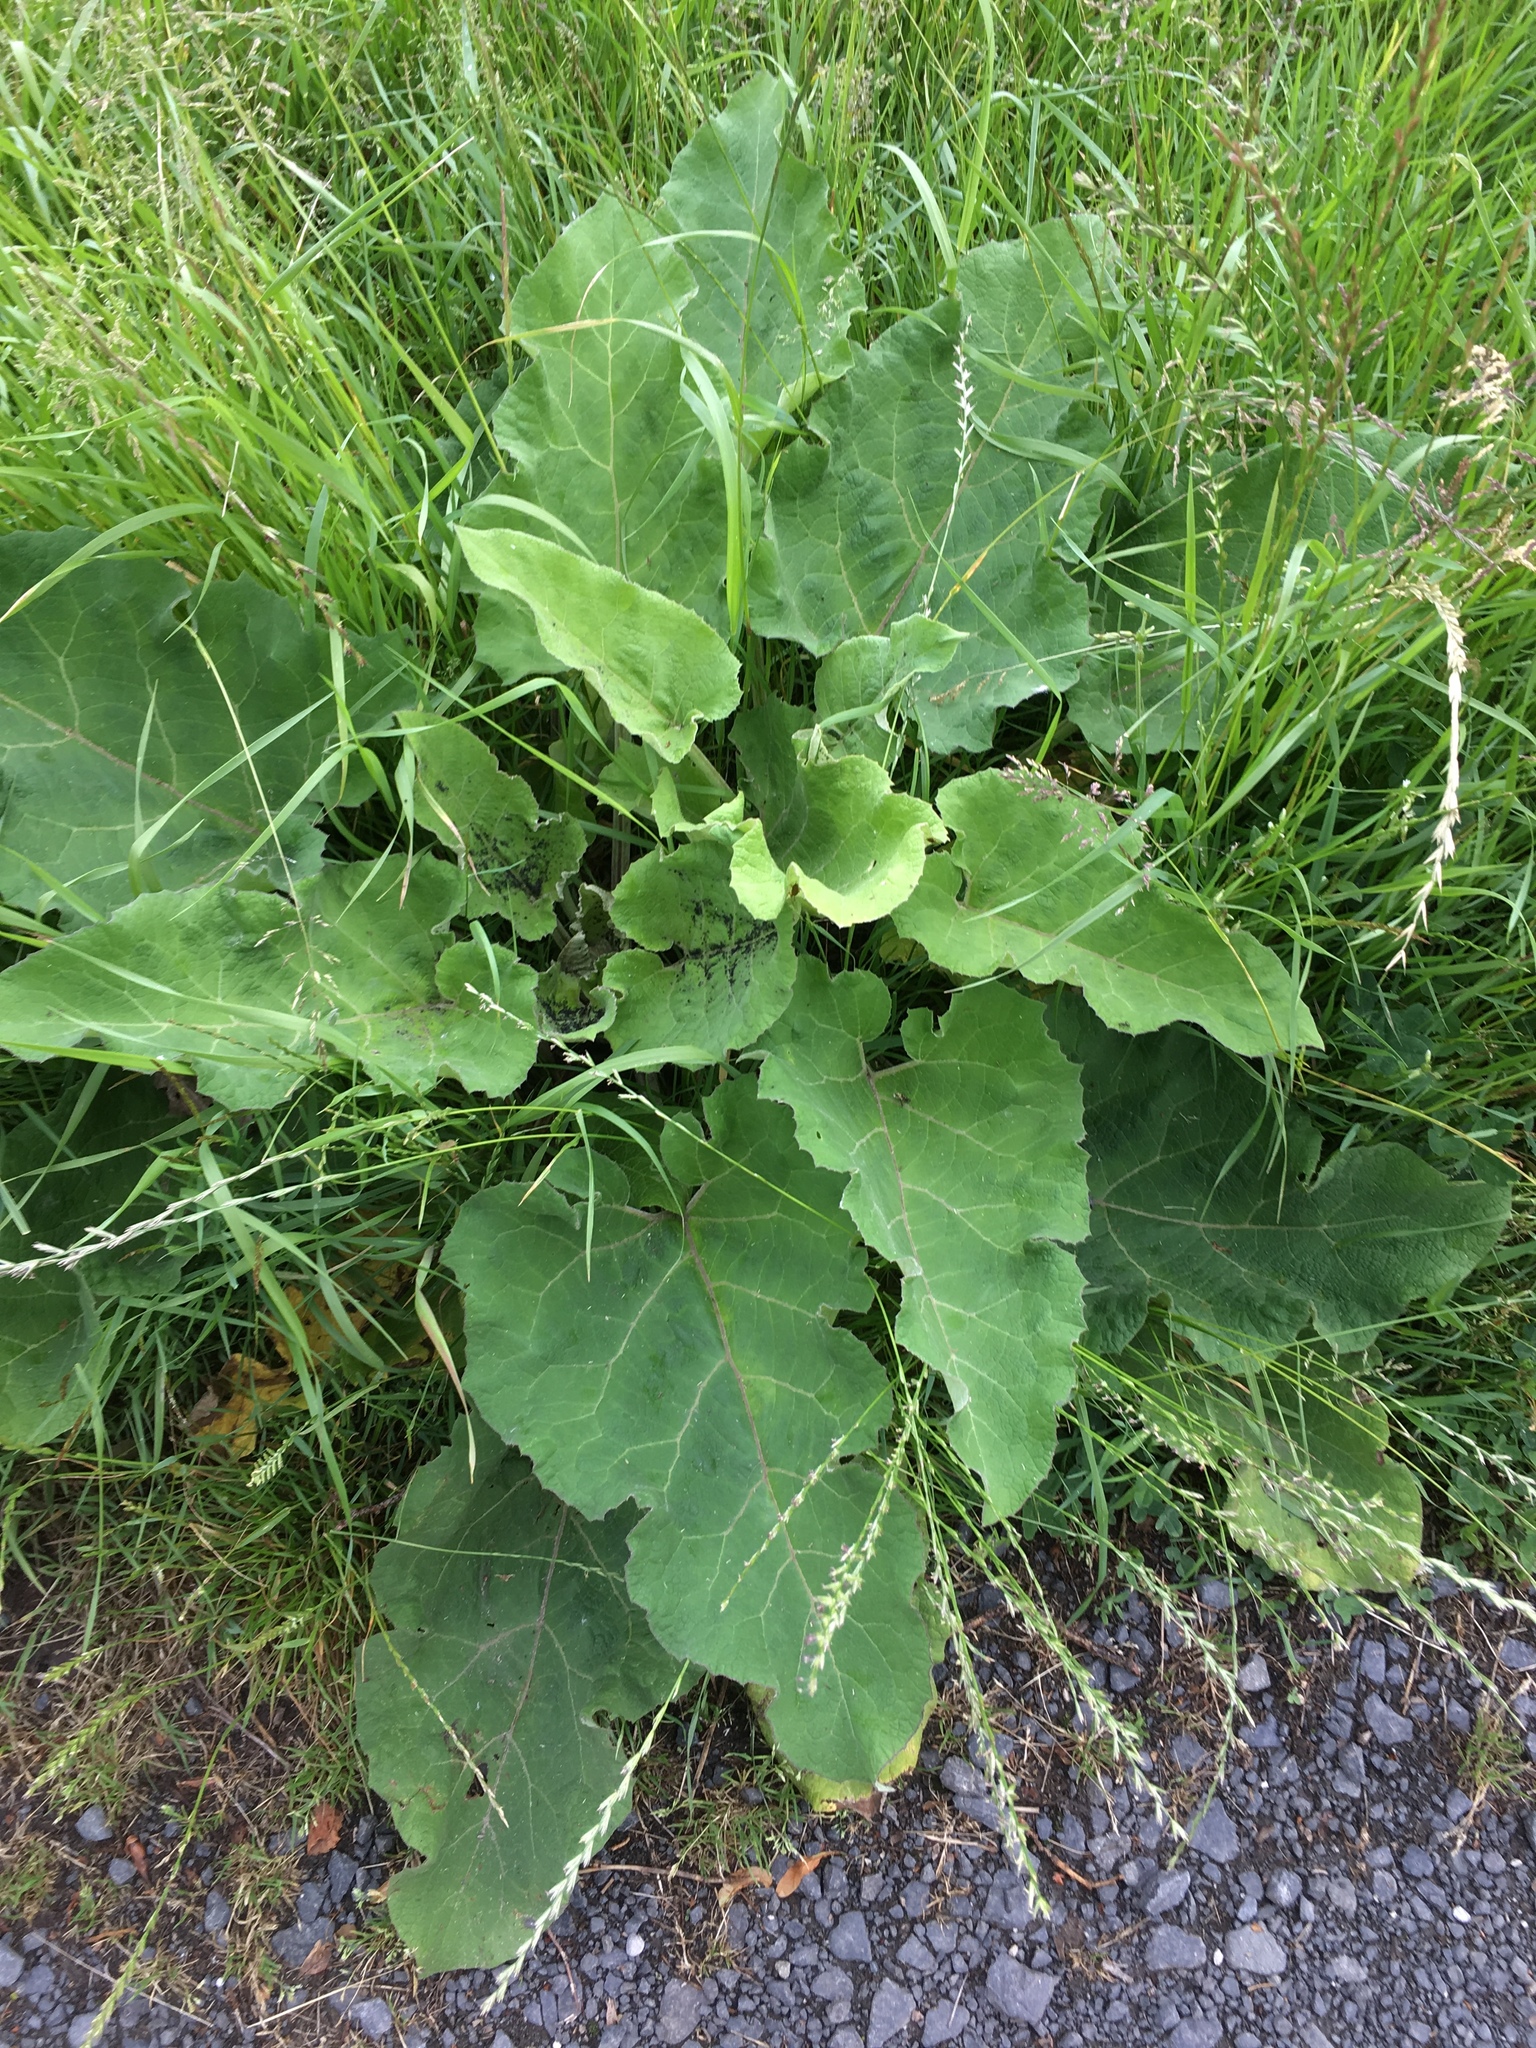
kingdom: Plantae
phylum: Tracheophyta
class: Magnoliopsida
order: Asterales
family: Asteraceae
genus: Arctium
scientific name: Arctium lappa
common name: Greater burdock
